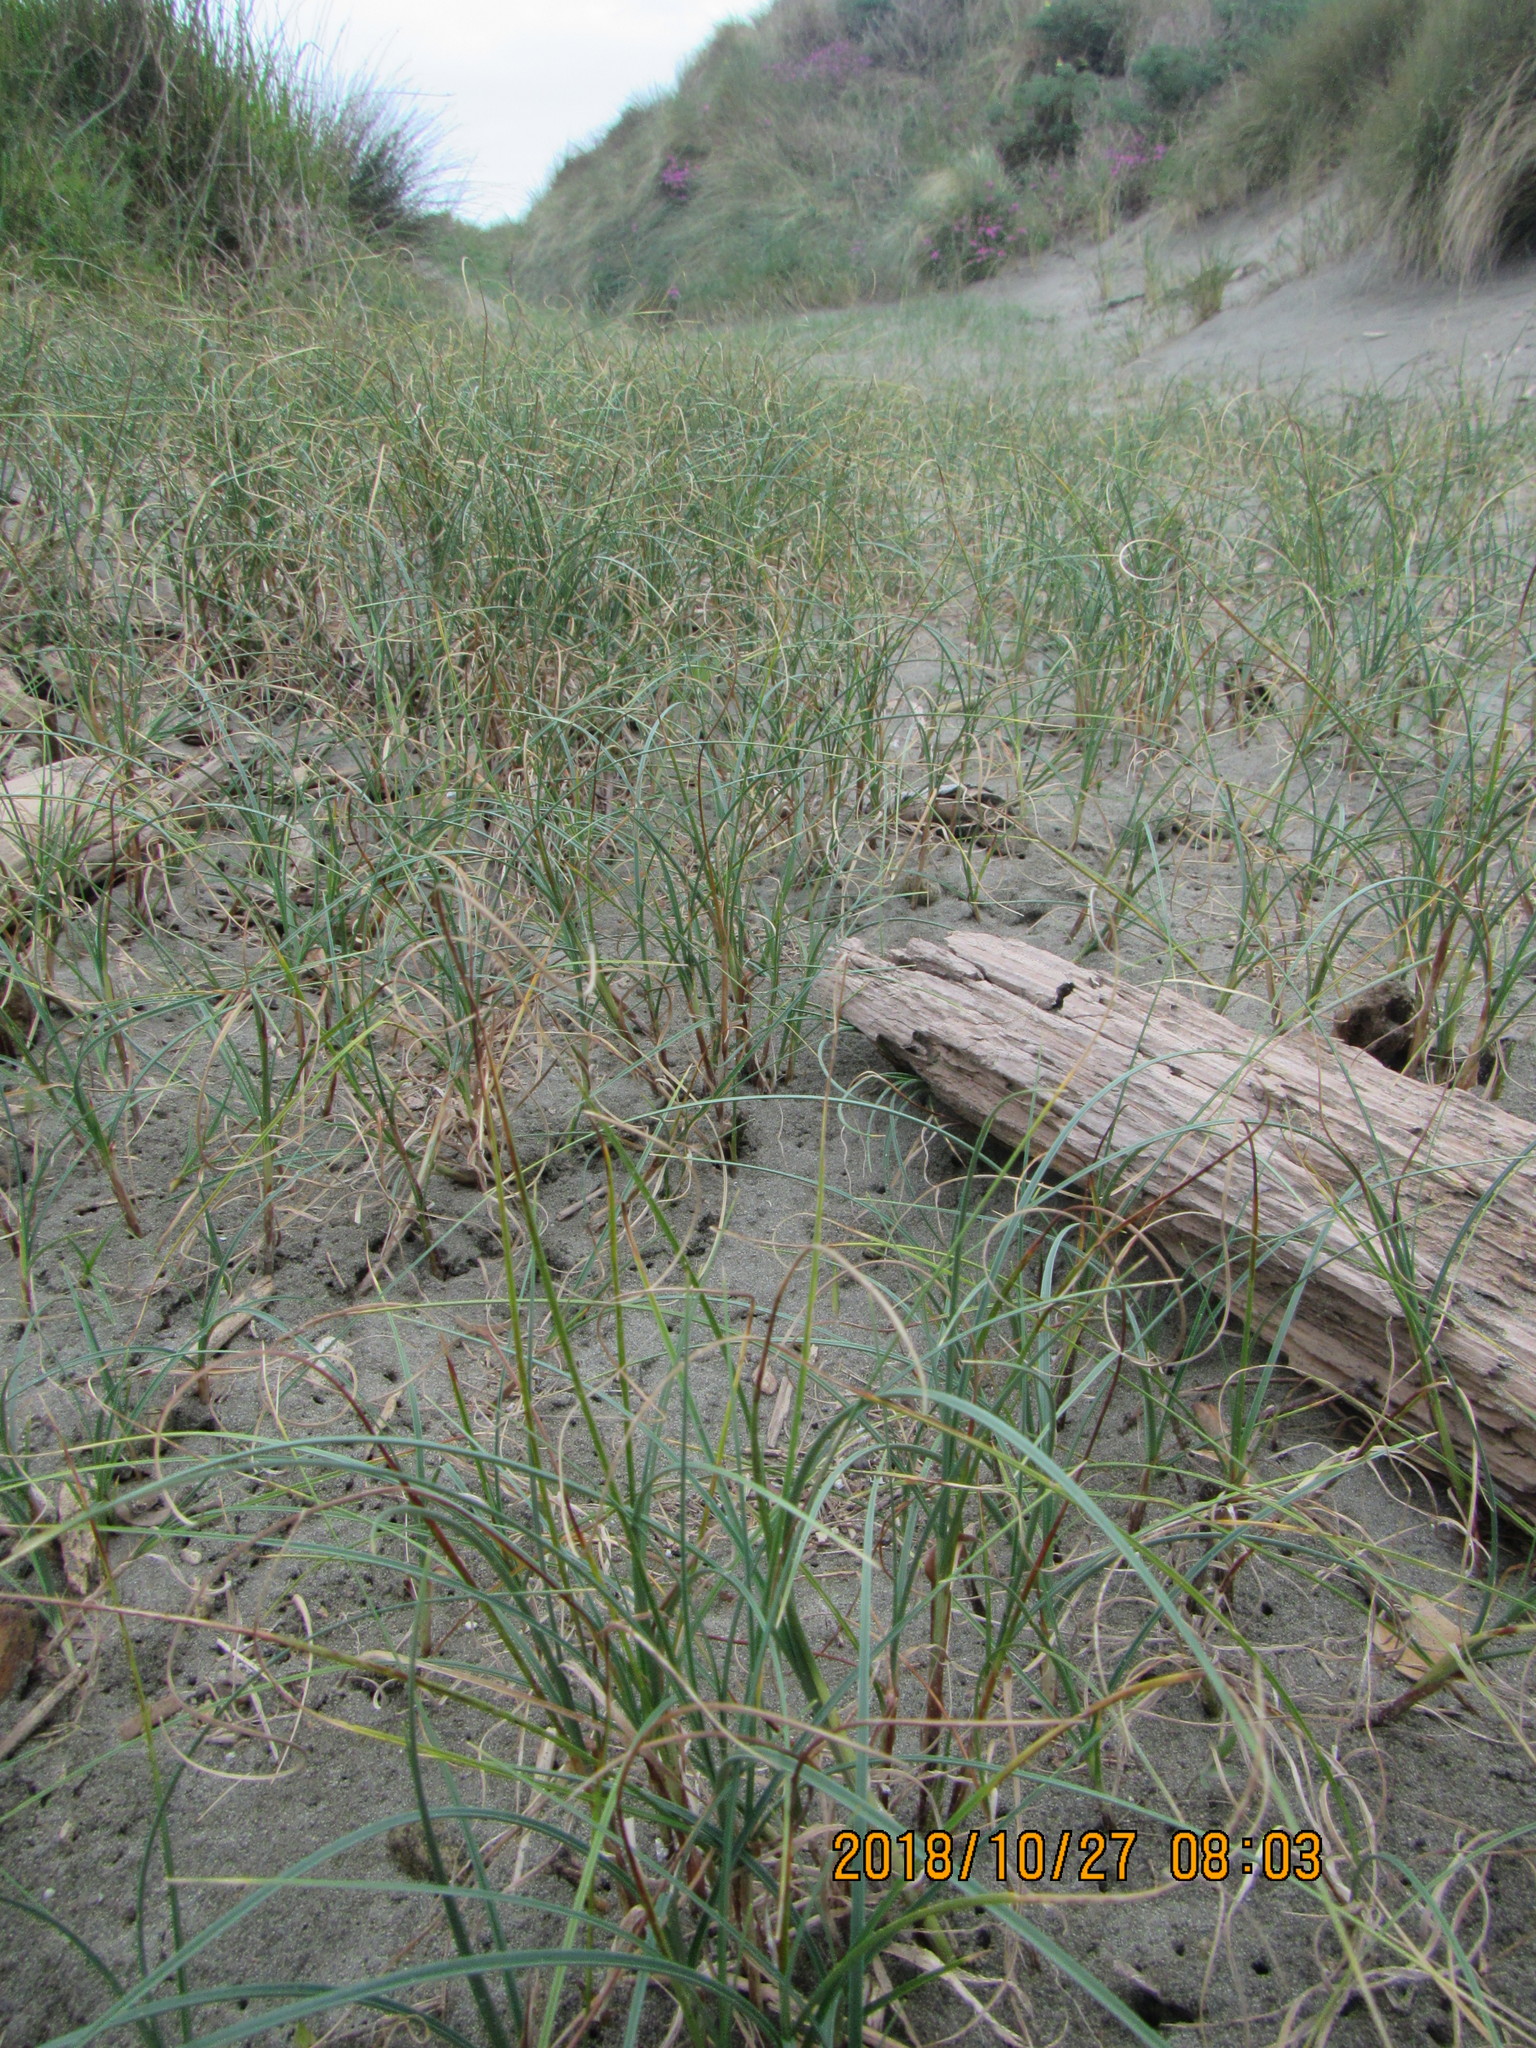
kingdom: Plantae
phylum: Tracheophyta
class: Liliopsida
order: Poales
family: Cyperaceae
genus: Carex
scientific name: Carex pumila
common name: Dwarf sedge
